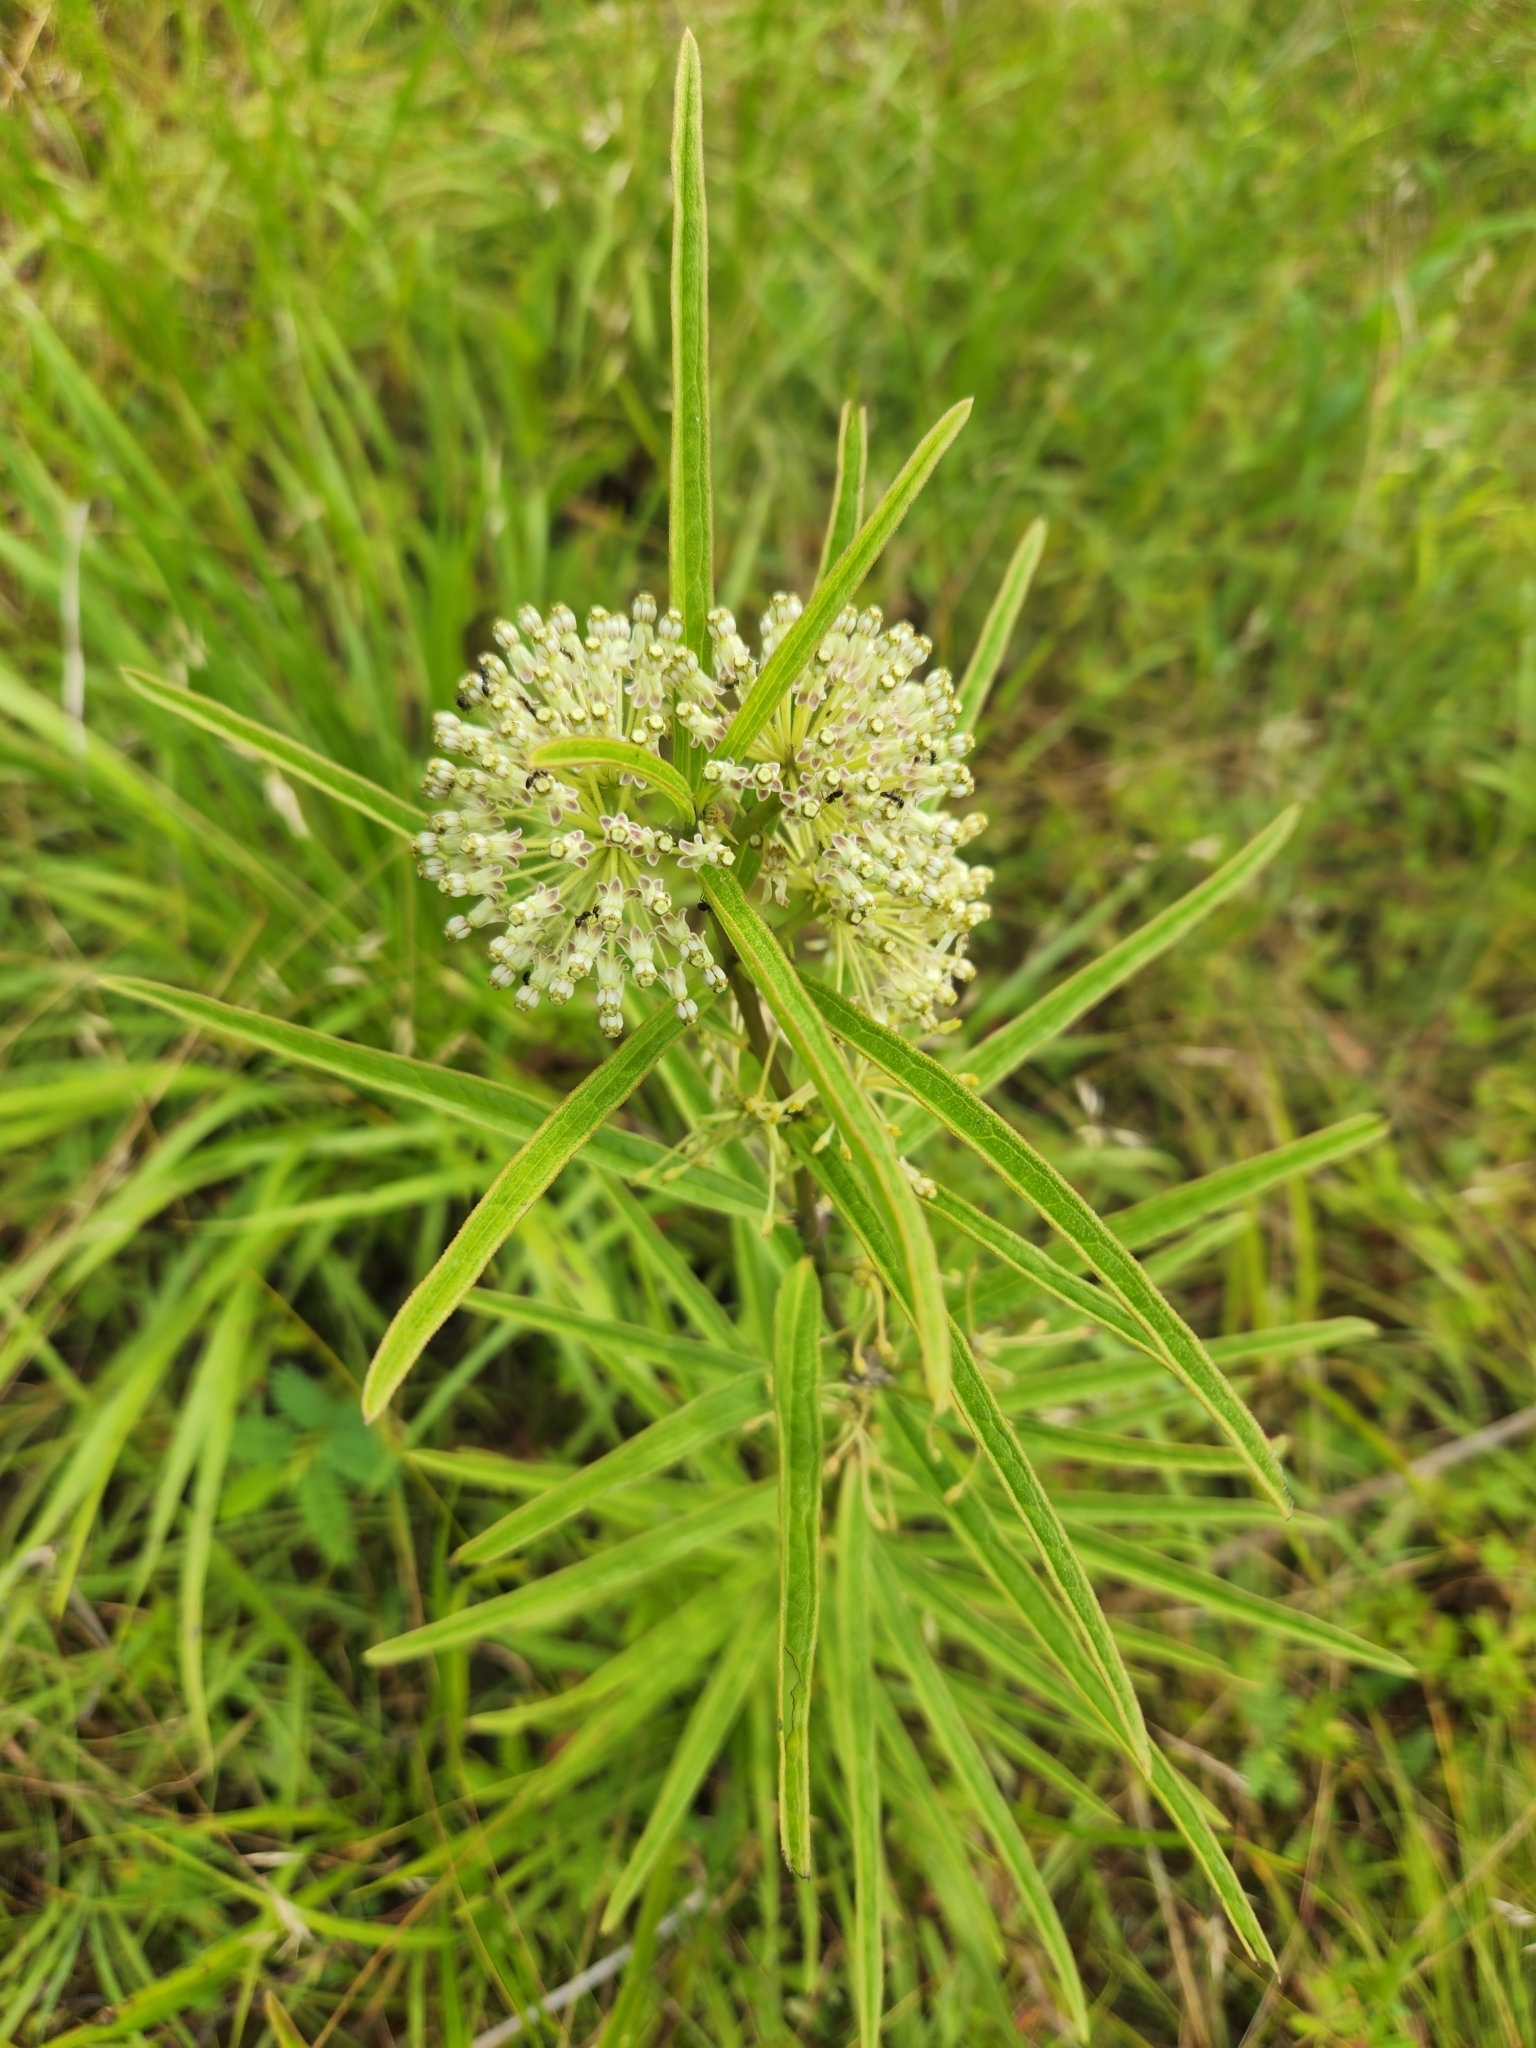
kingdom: Plantae
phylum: Tracheophyta
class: Magnoliopsida
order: Gentianales
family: Apocynaceae
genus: Asclepias
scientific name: Asclepias hirtella
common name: Prairie milkweed
